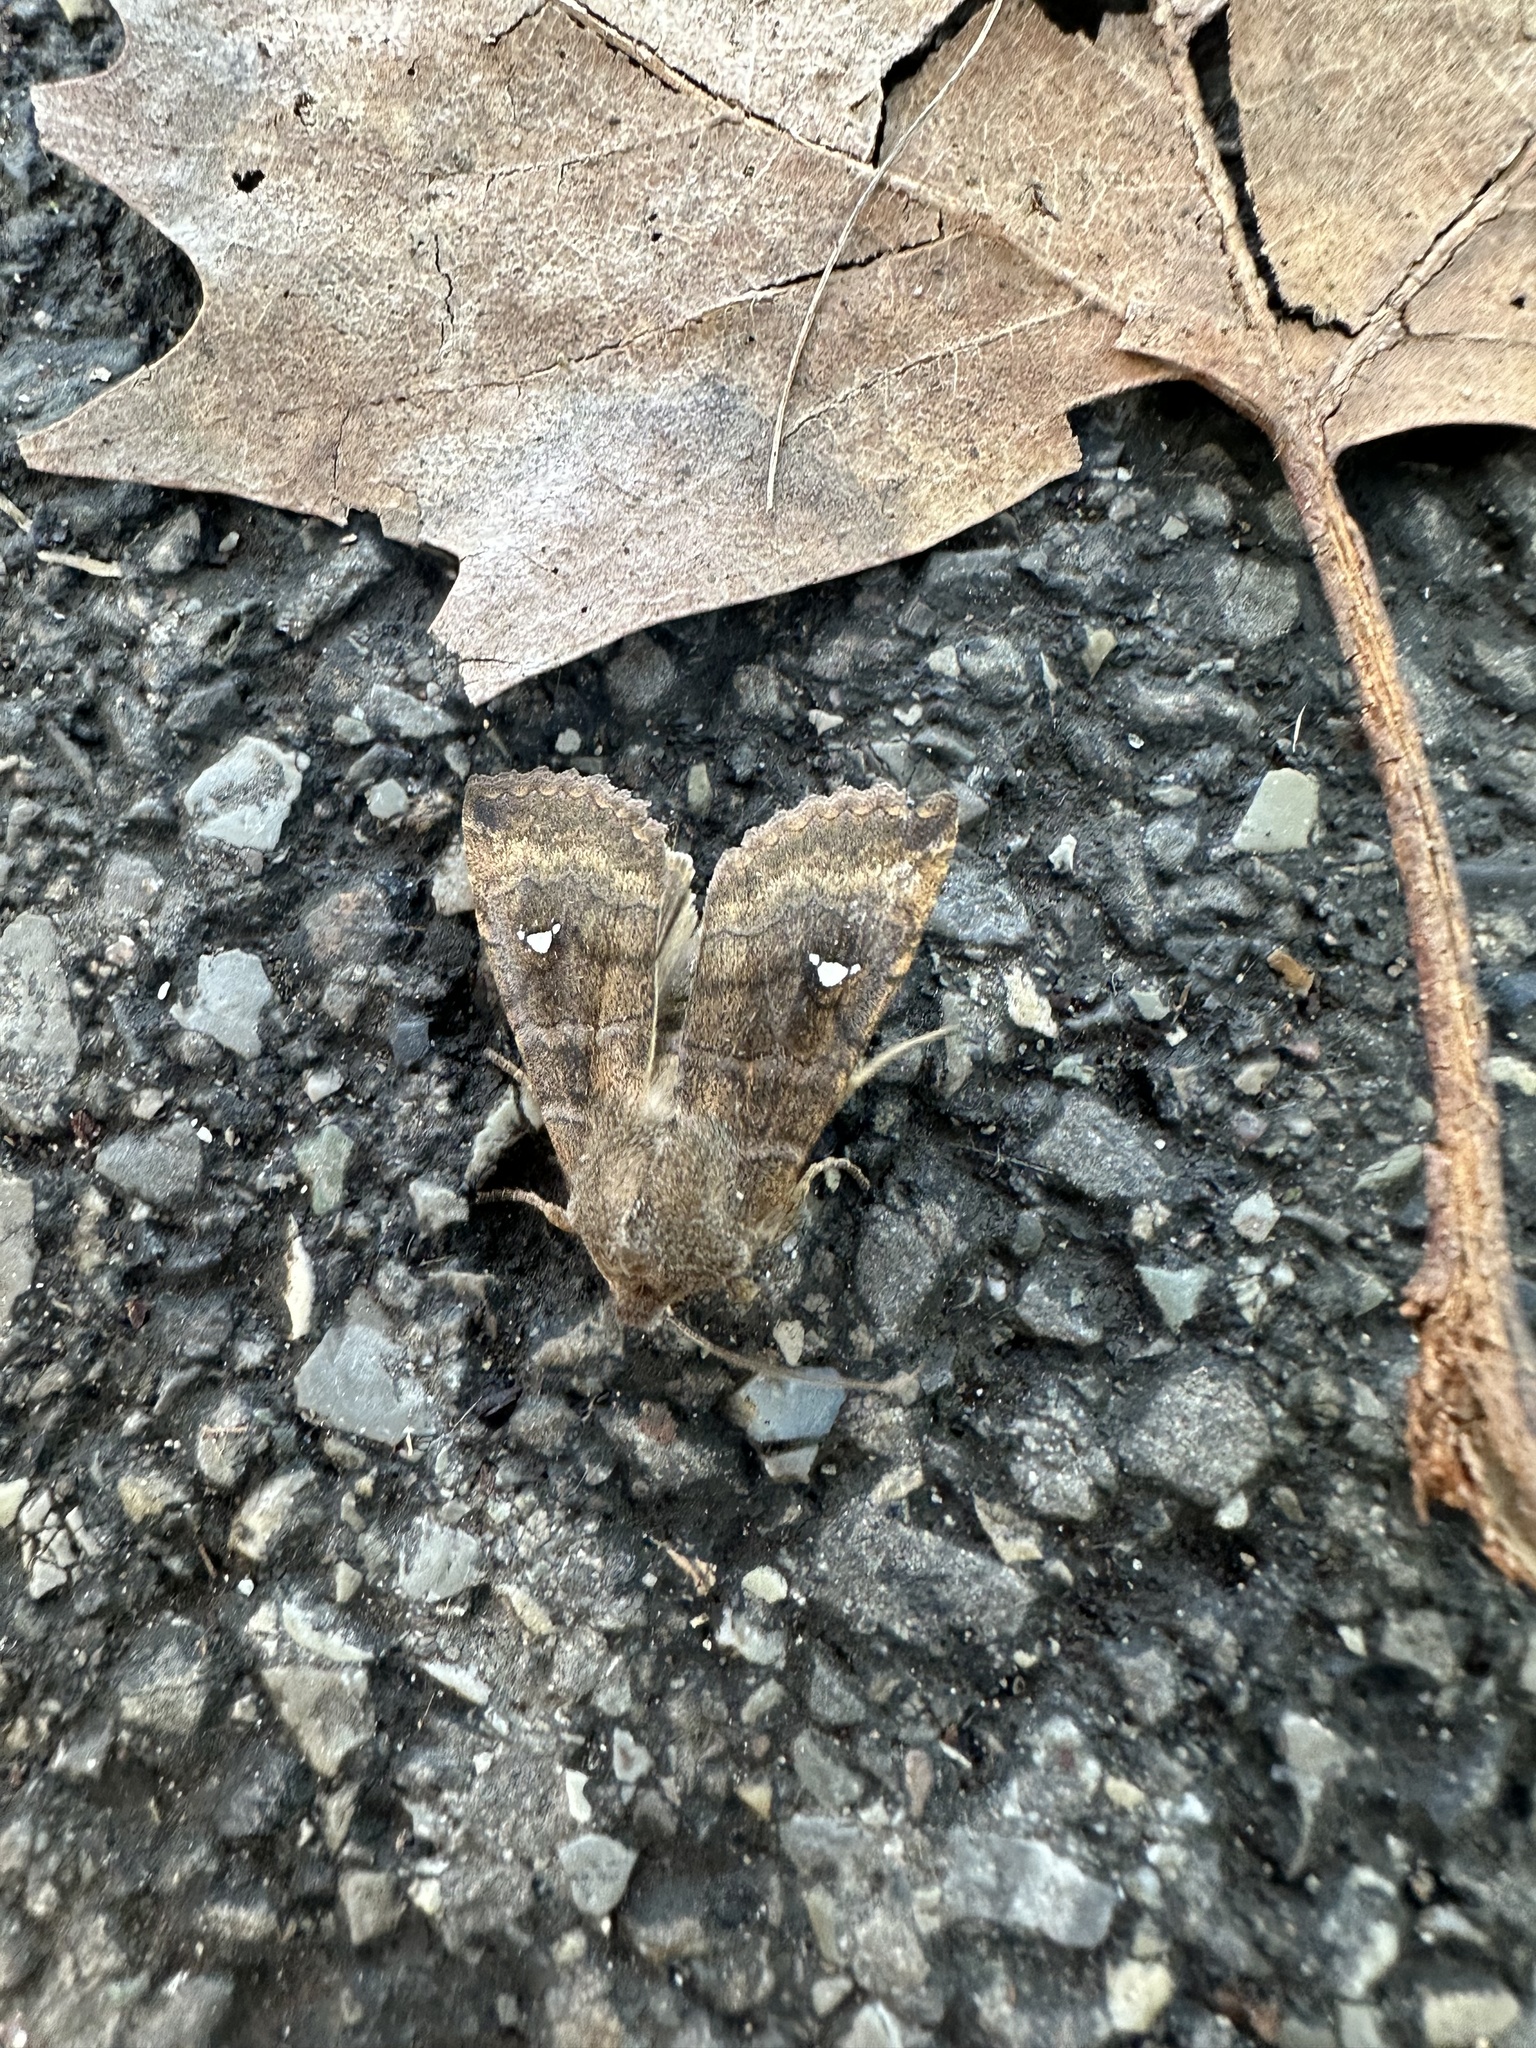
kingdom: Animalia
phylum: Arthropoda
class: Insecta
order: Lepidoptera
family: Noctuidae
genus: Eupsilia
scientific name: Eupsilia transversa
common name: Satellite
